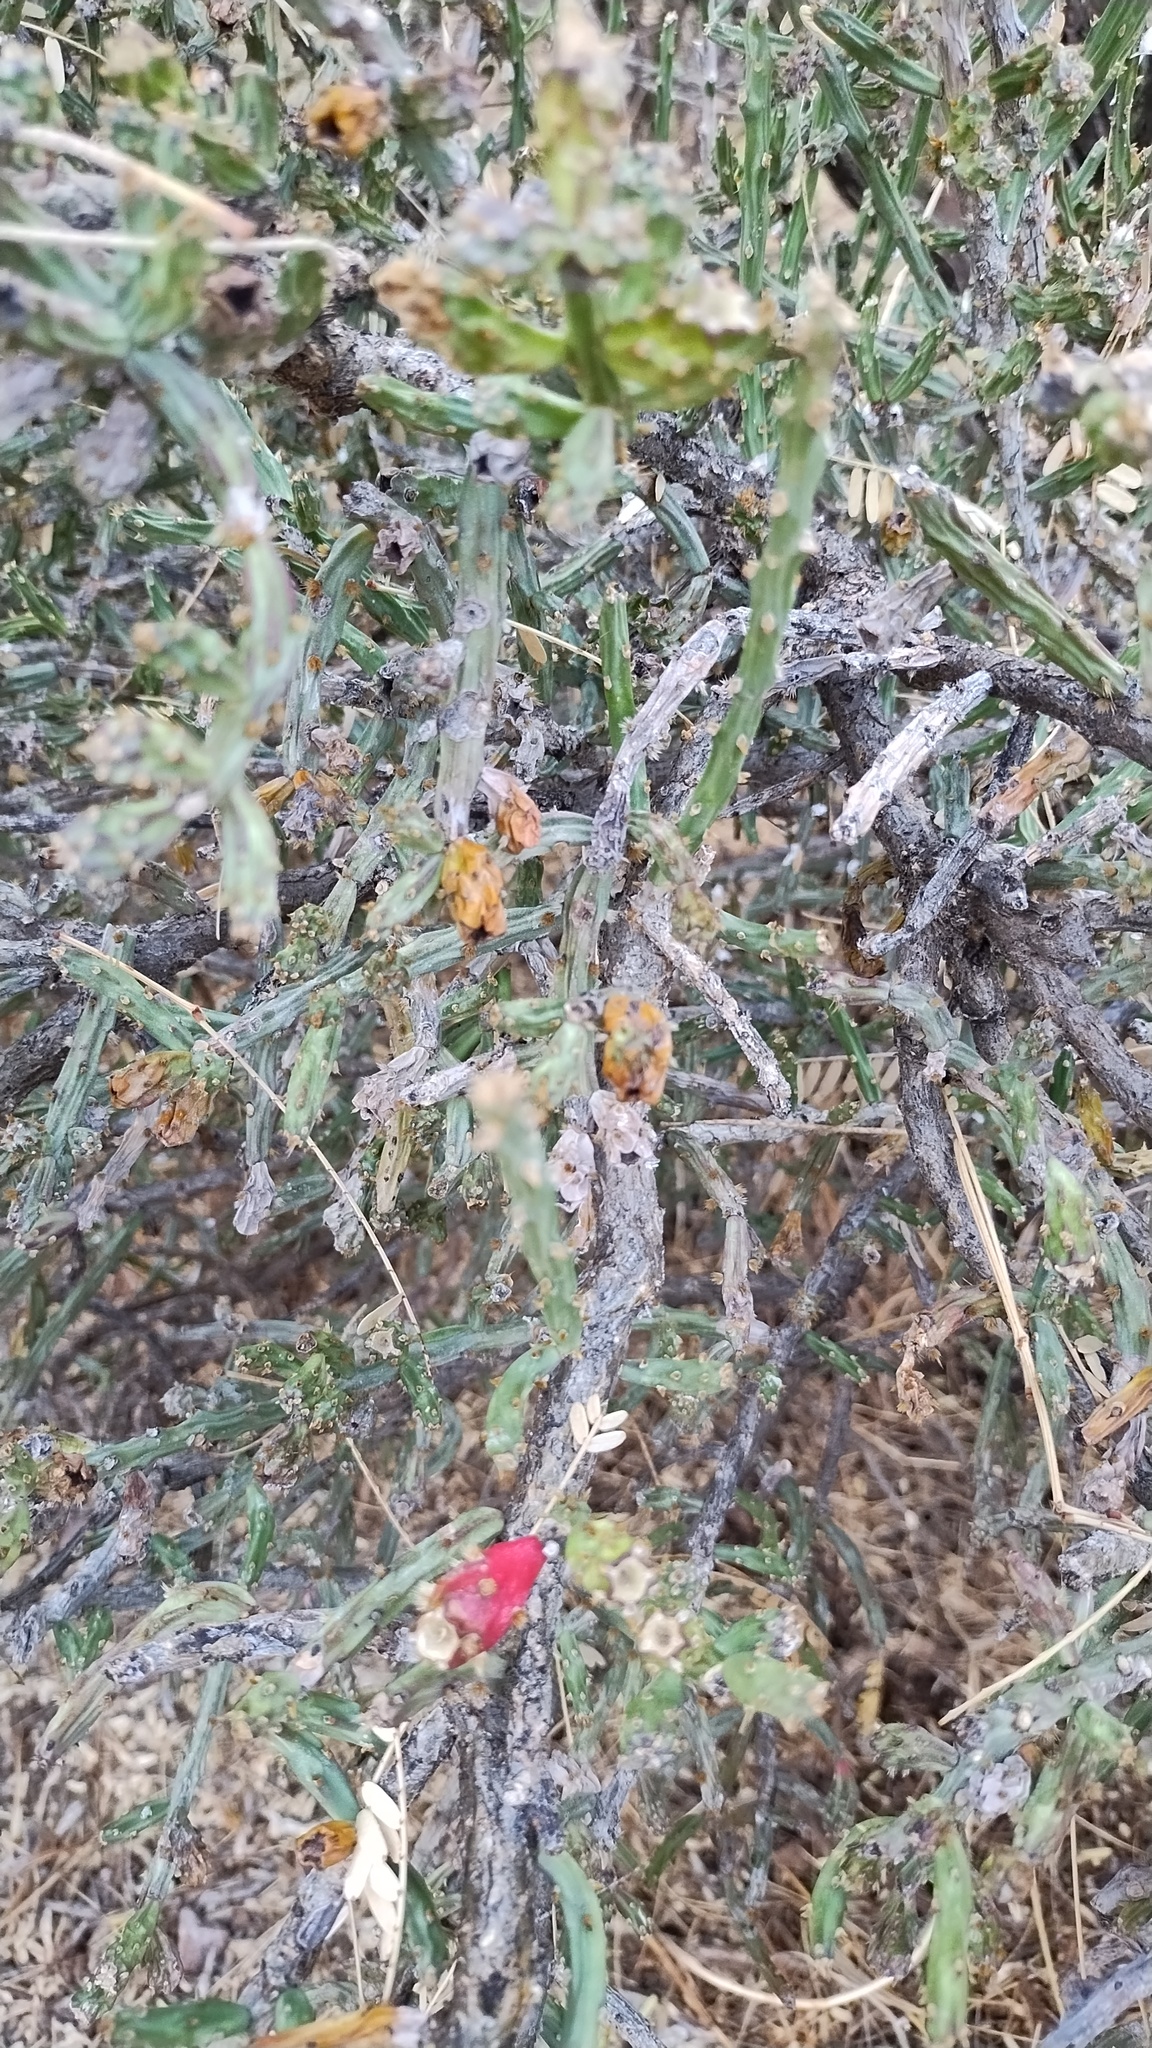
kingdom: Plantae
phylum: Tracheophyta
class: Magnoliopsida
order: Caryophyllales
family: Cactaceae
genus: Cylindropuntia
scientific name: Cylindropuntia leptocaulis
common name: Christmas cactus
